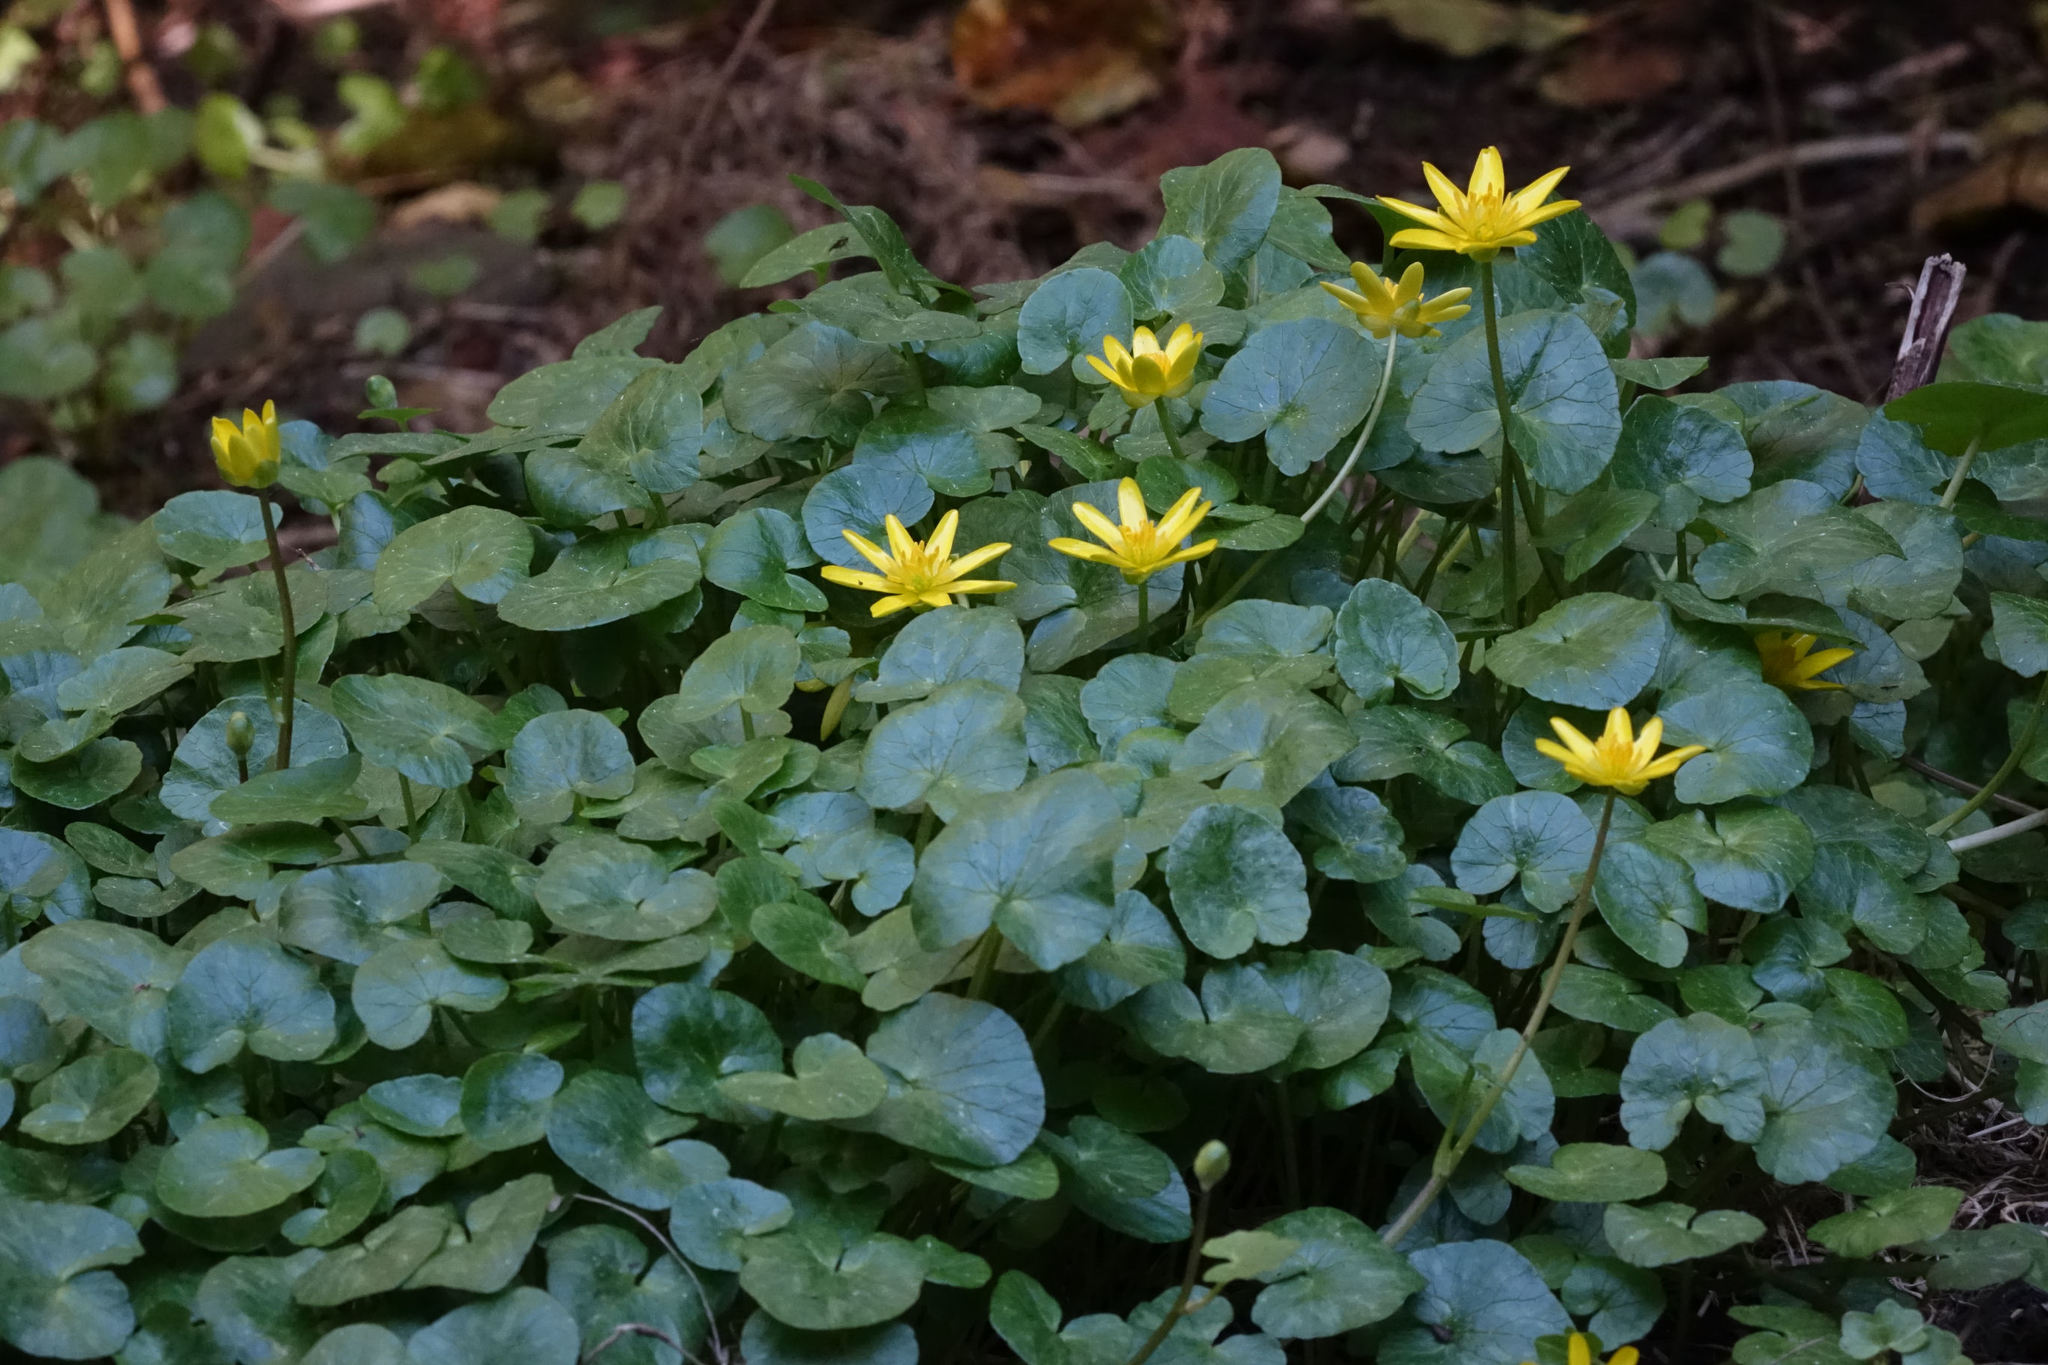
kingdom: Plantae
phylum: Tracheophyta
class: Magnoliopsida
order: Ranunculales
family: Ranunculaceae
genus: Ficaria
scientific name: Ficaria grandiflora
